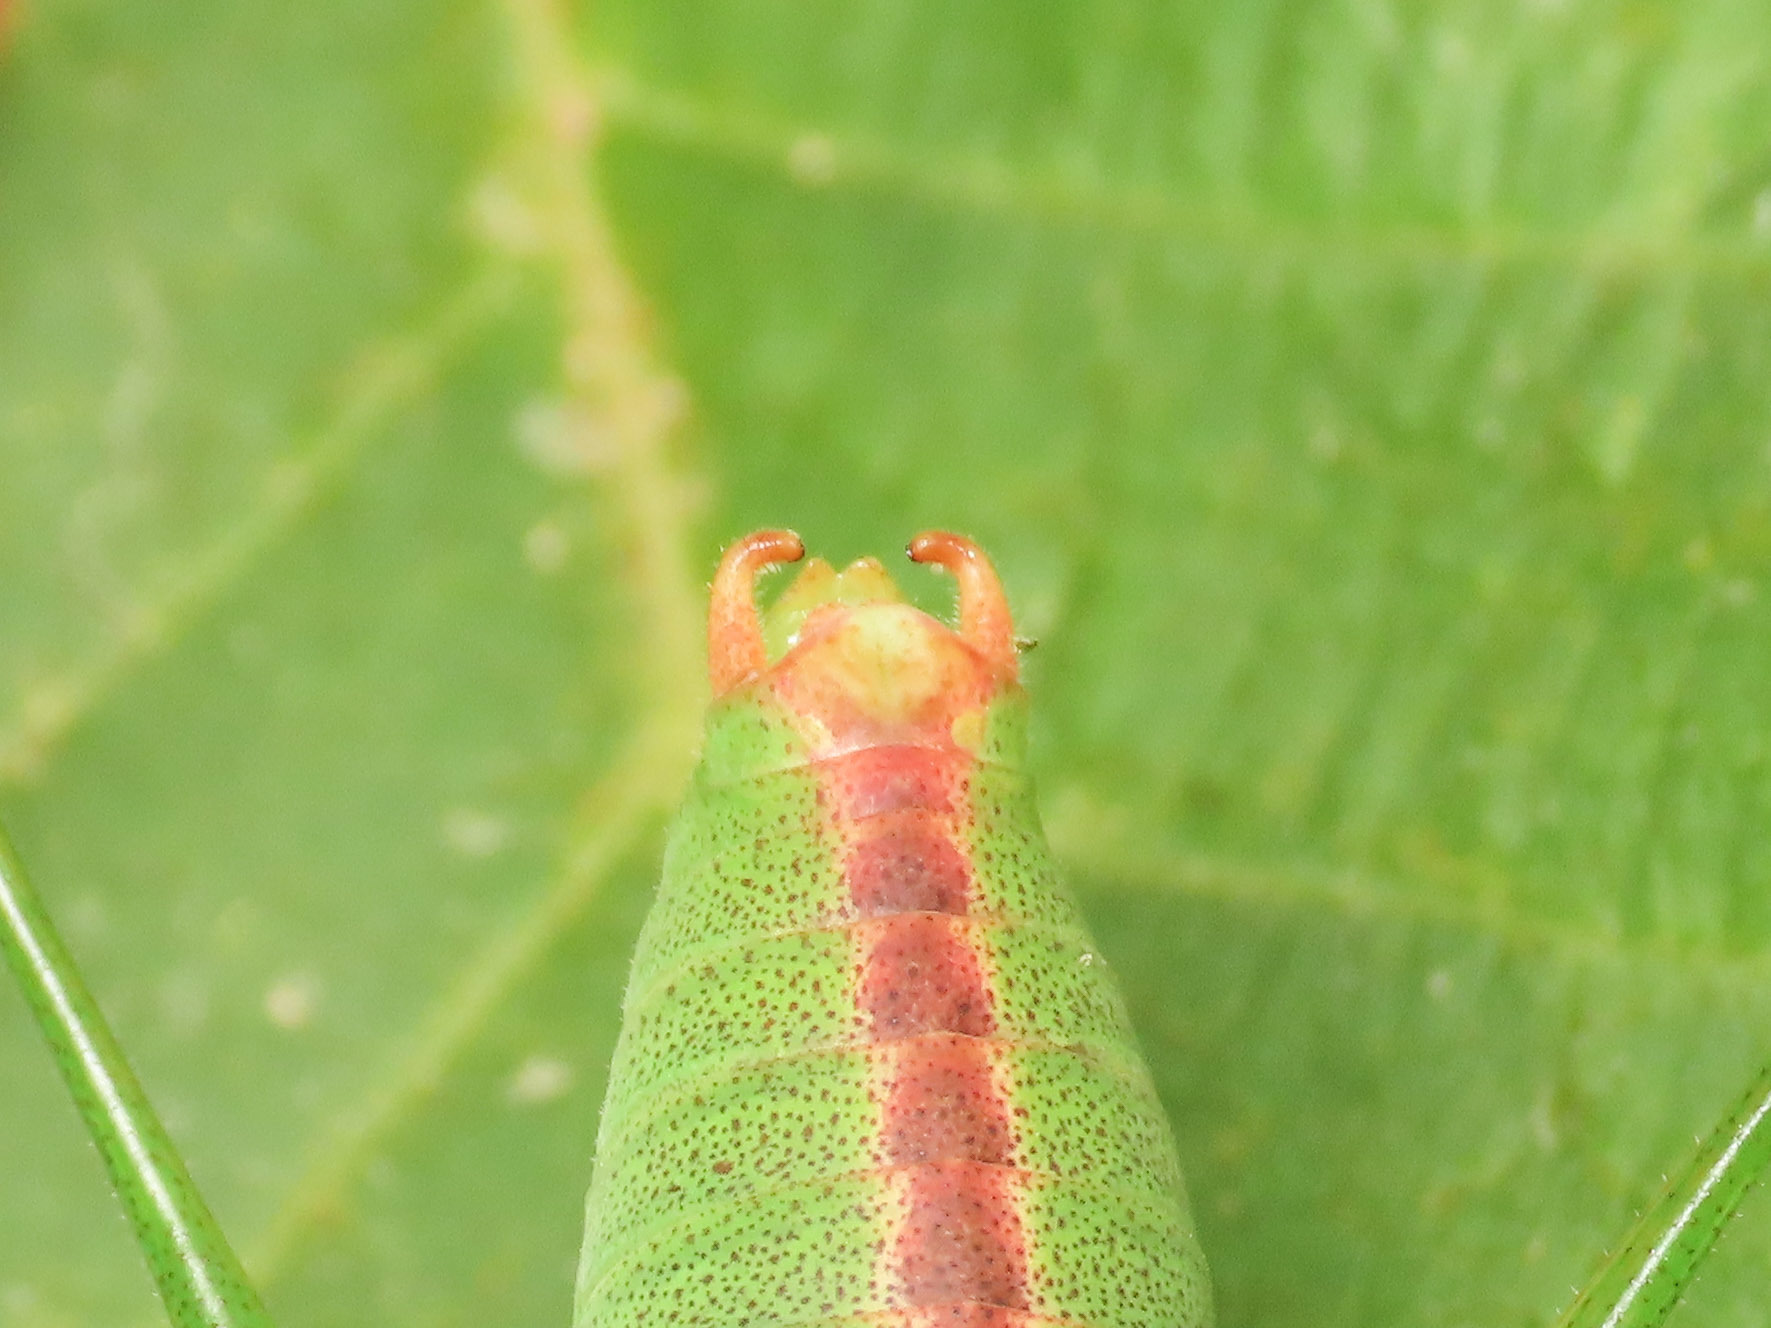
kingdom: Animalia
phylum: Arthropoda
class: Insecta
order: Orthoptera
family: Tettigoniidae
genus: Leptophyes
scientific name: Leptophyes laticauda
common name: Long-tailed speckled bush-cricket
